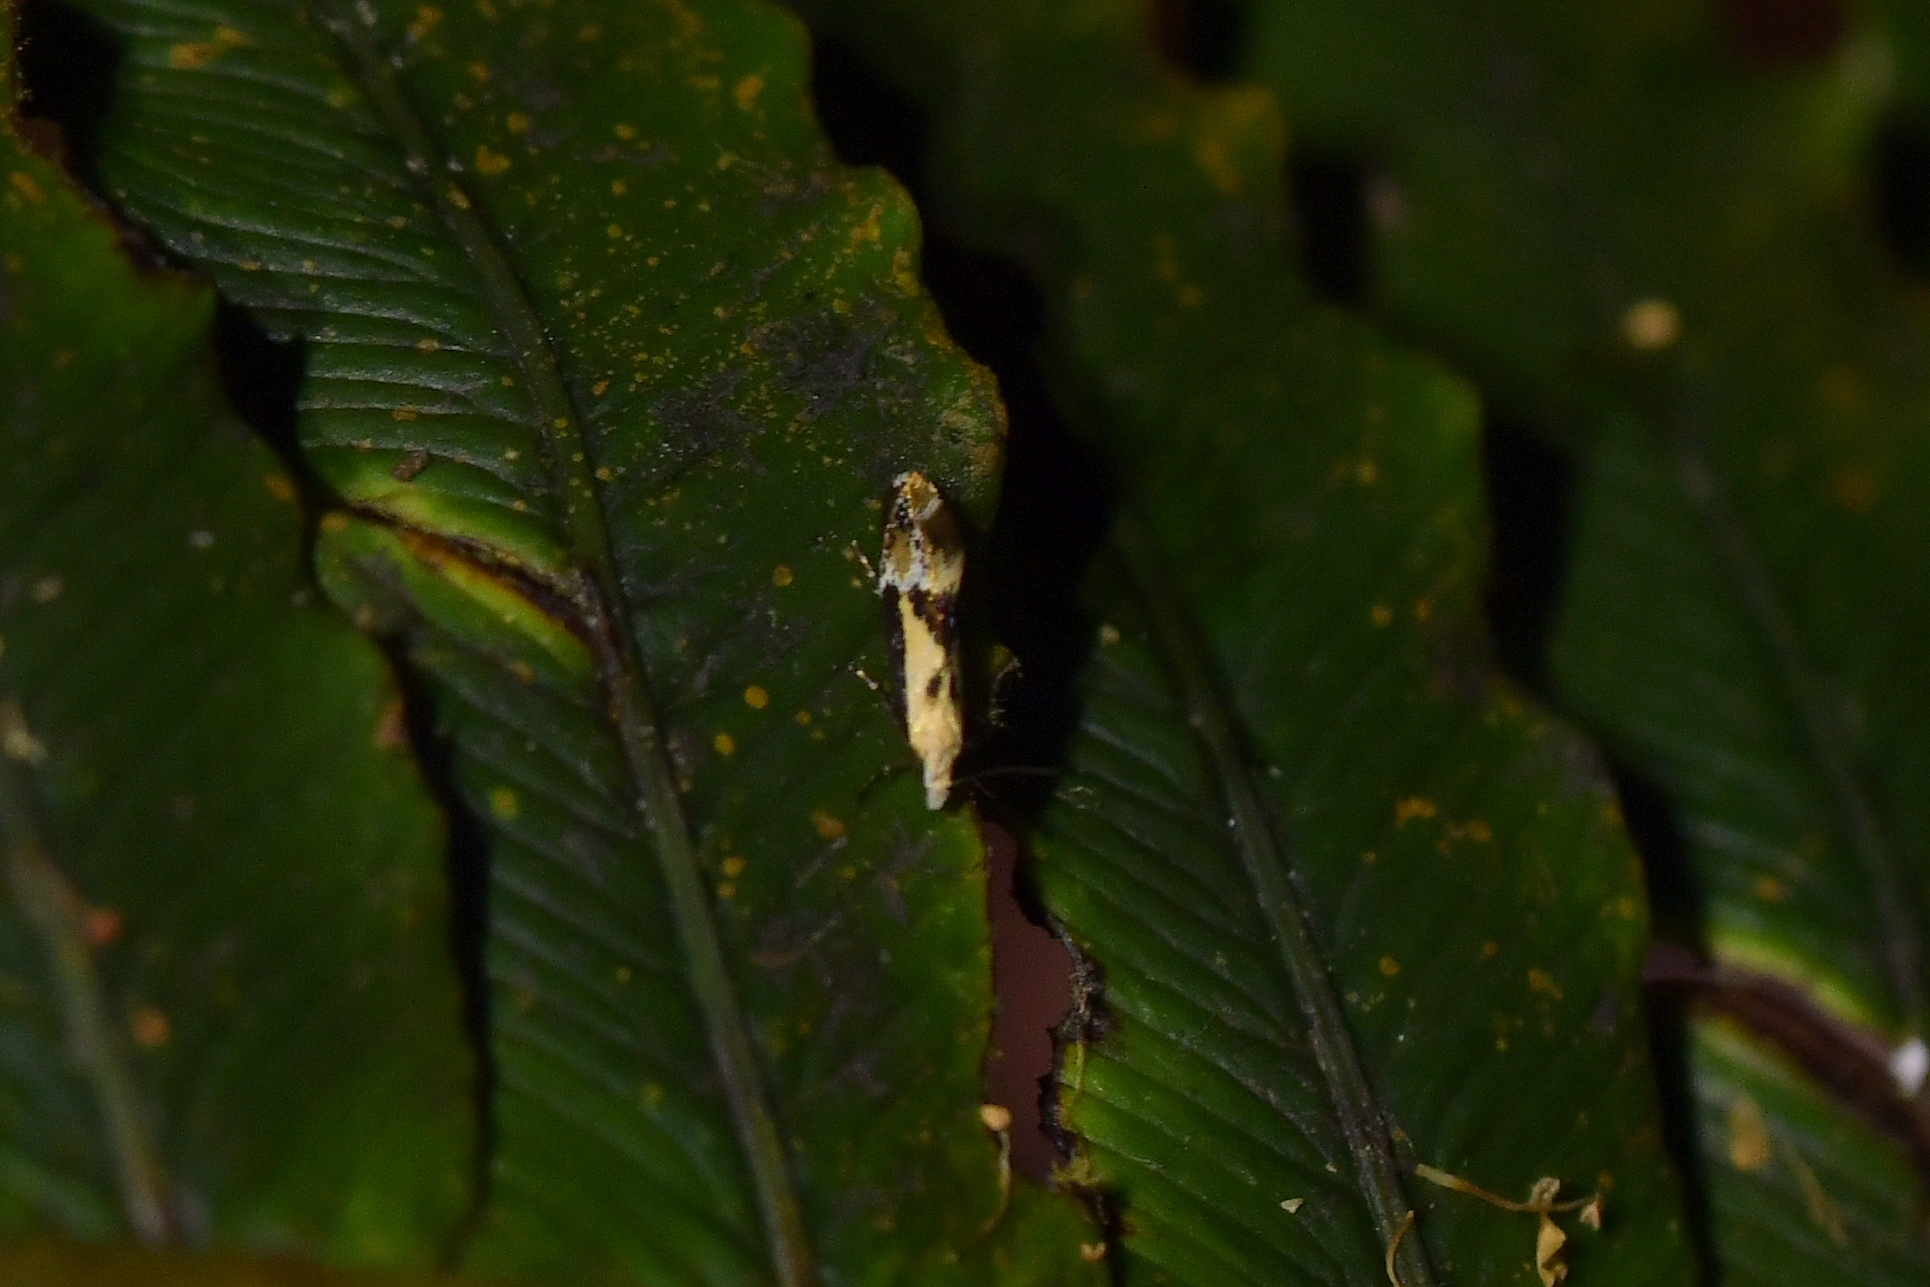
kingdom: Animalia
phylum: Arthropoda
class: Insecta
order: Lepidoptera
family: Mnesarchaeidae
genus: Mnesarchella
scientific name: Mnesarchella loxoscia
